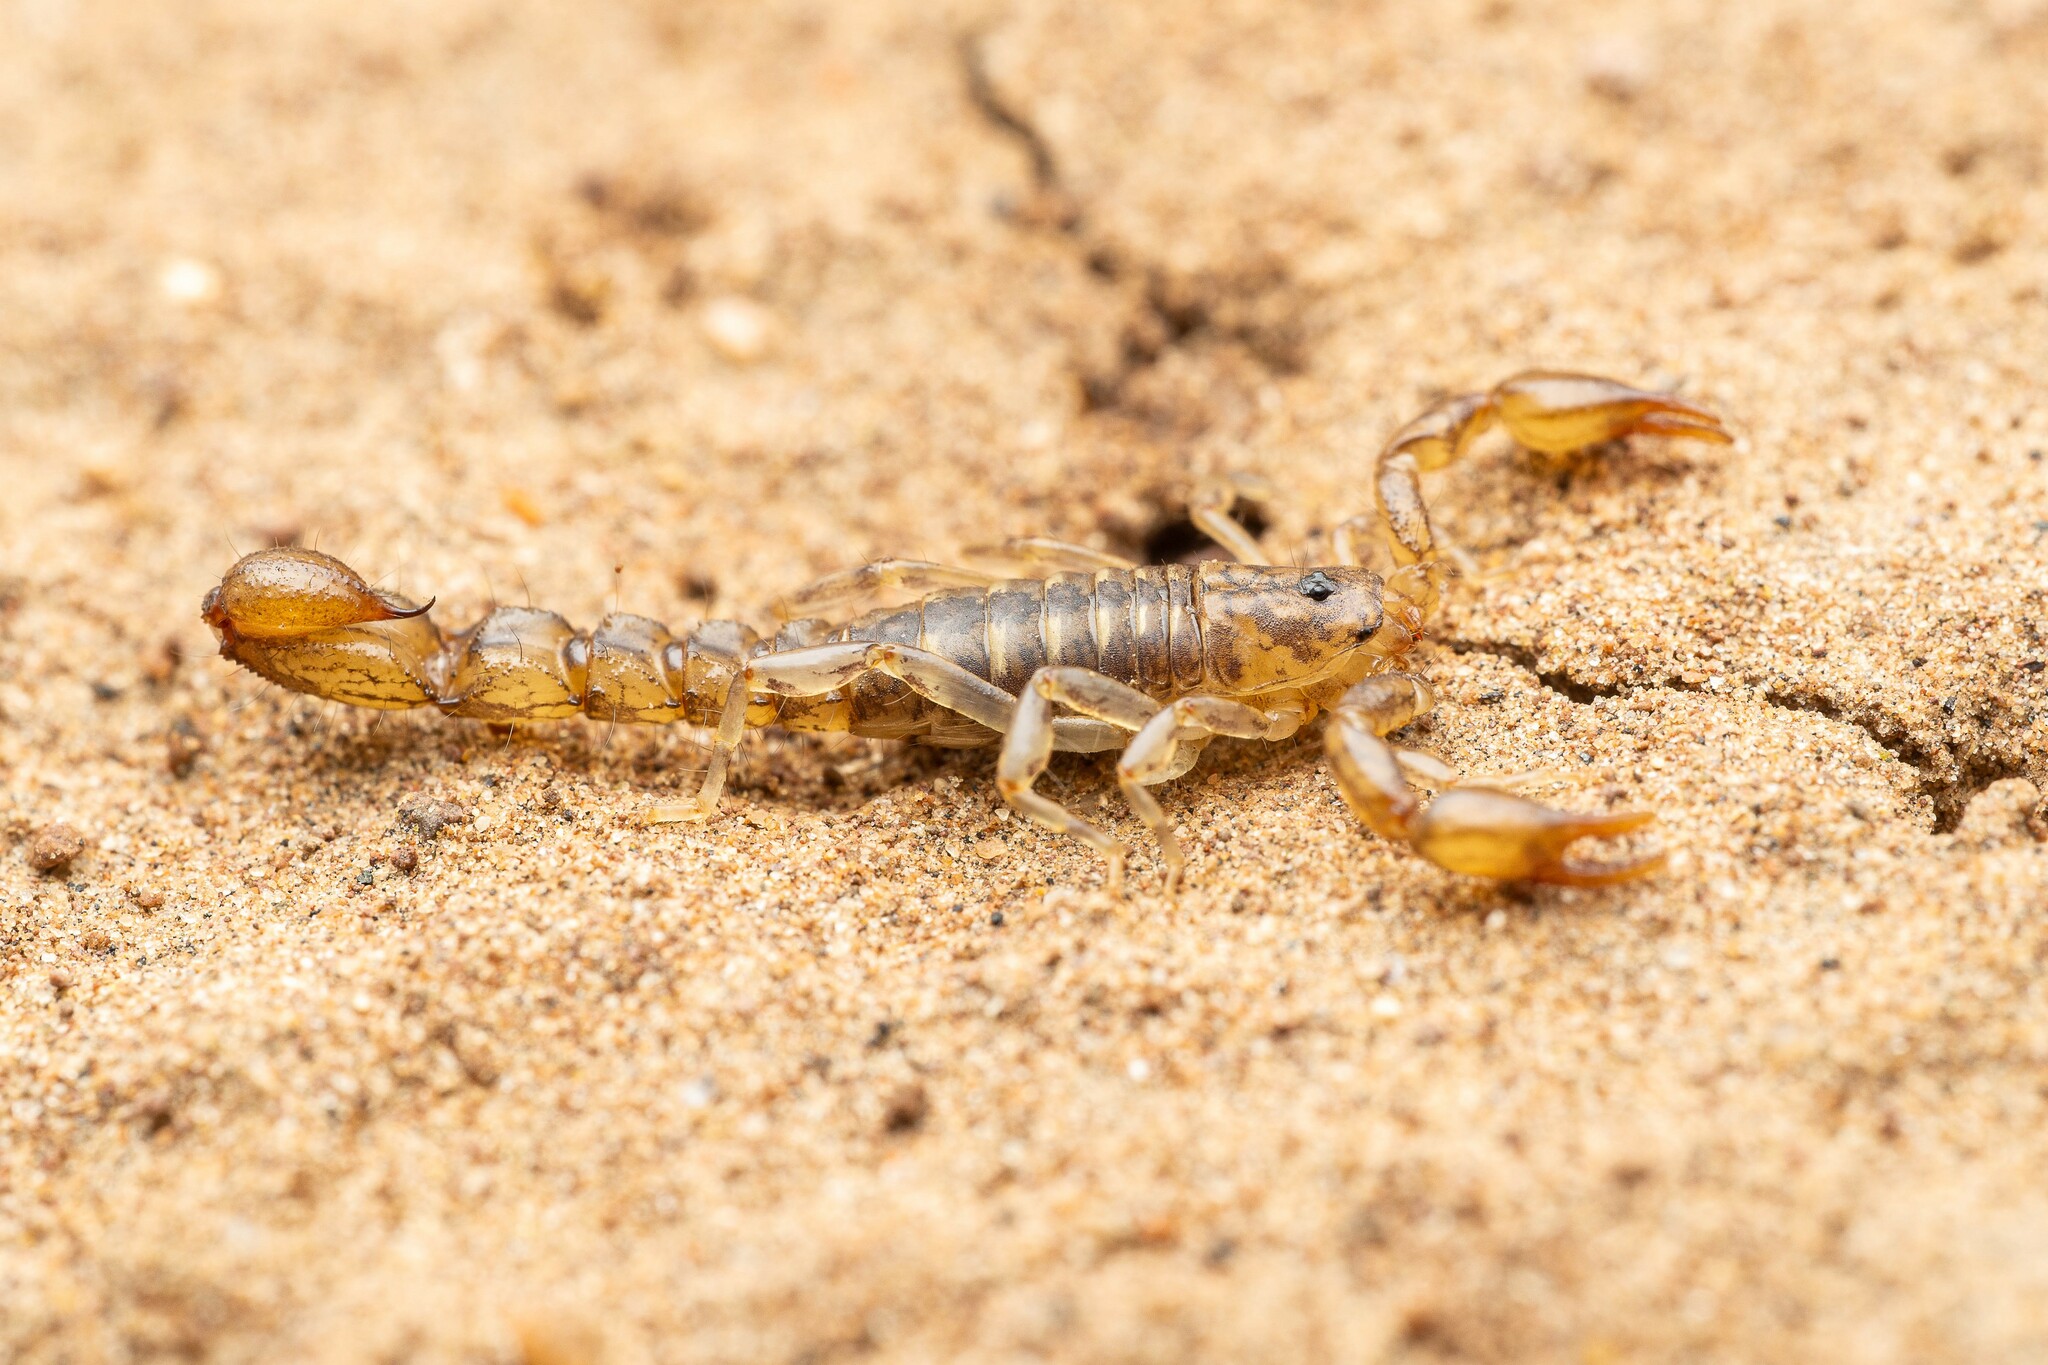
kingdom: Animalia
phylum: Arthropoda
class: Arachnida
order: Scorpiones
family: Superstitioniidae
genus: Superstitionia
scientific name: Superstitionia donensis
